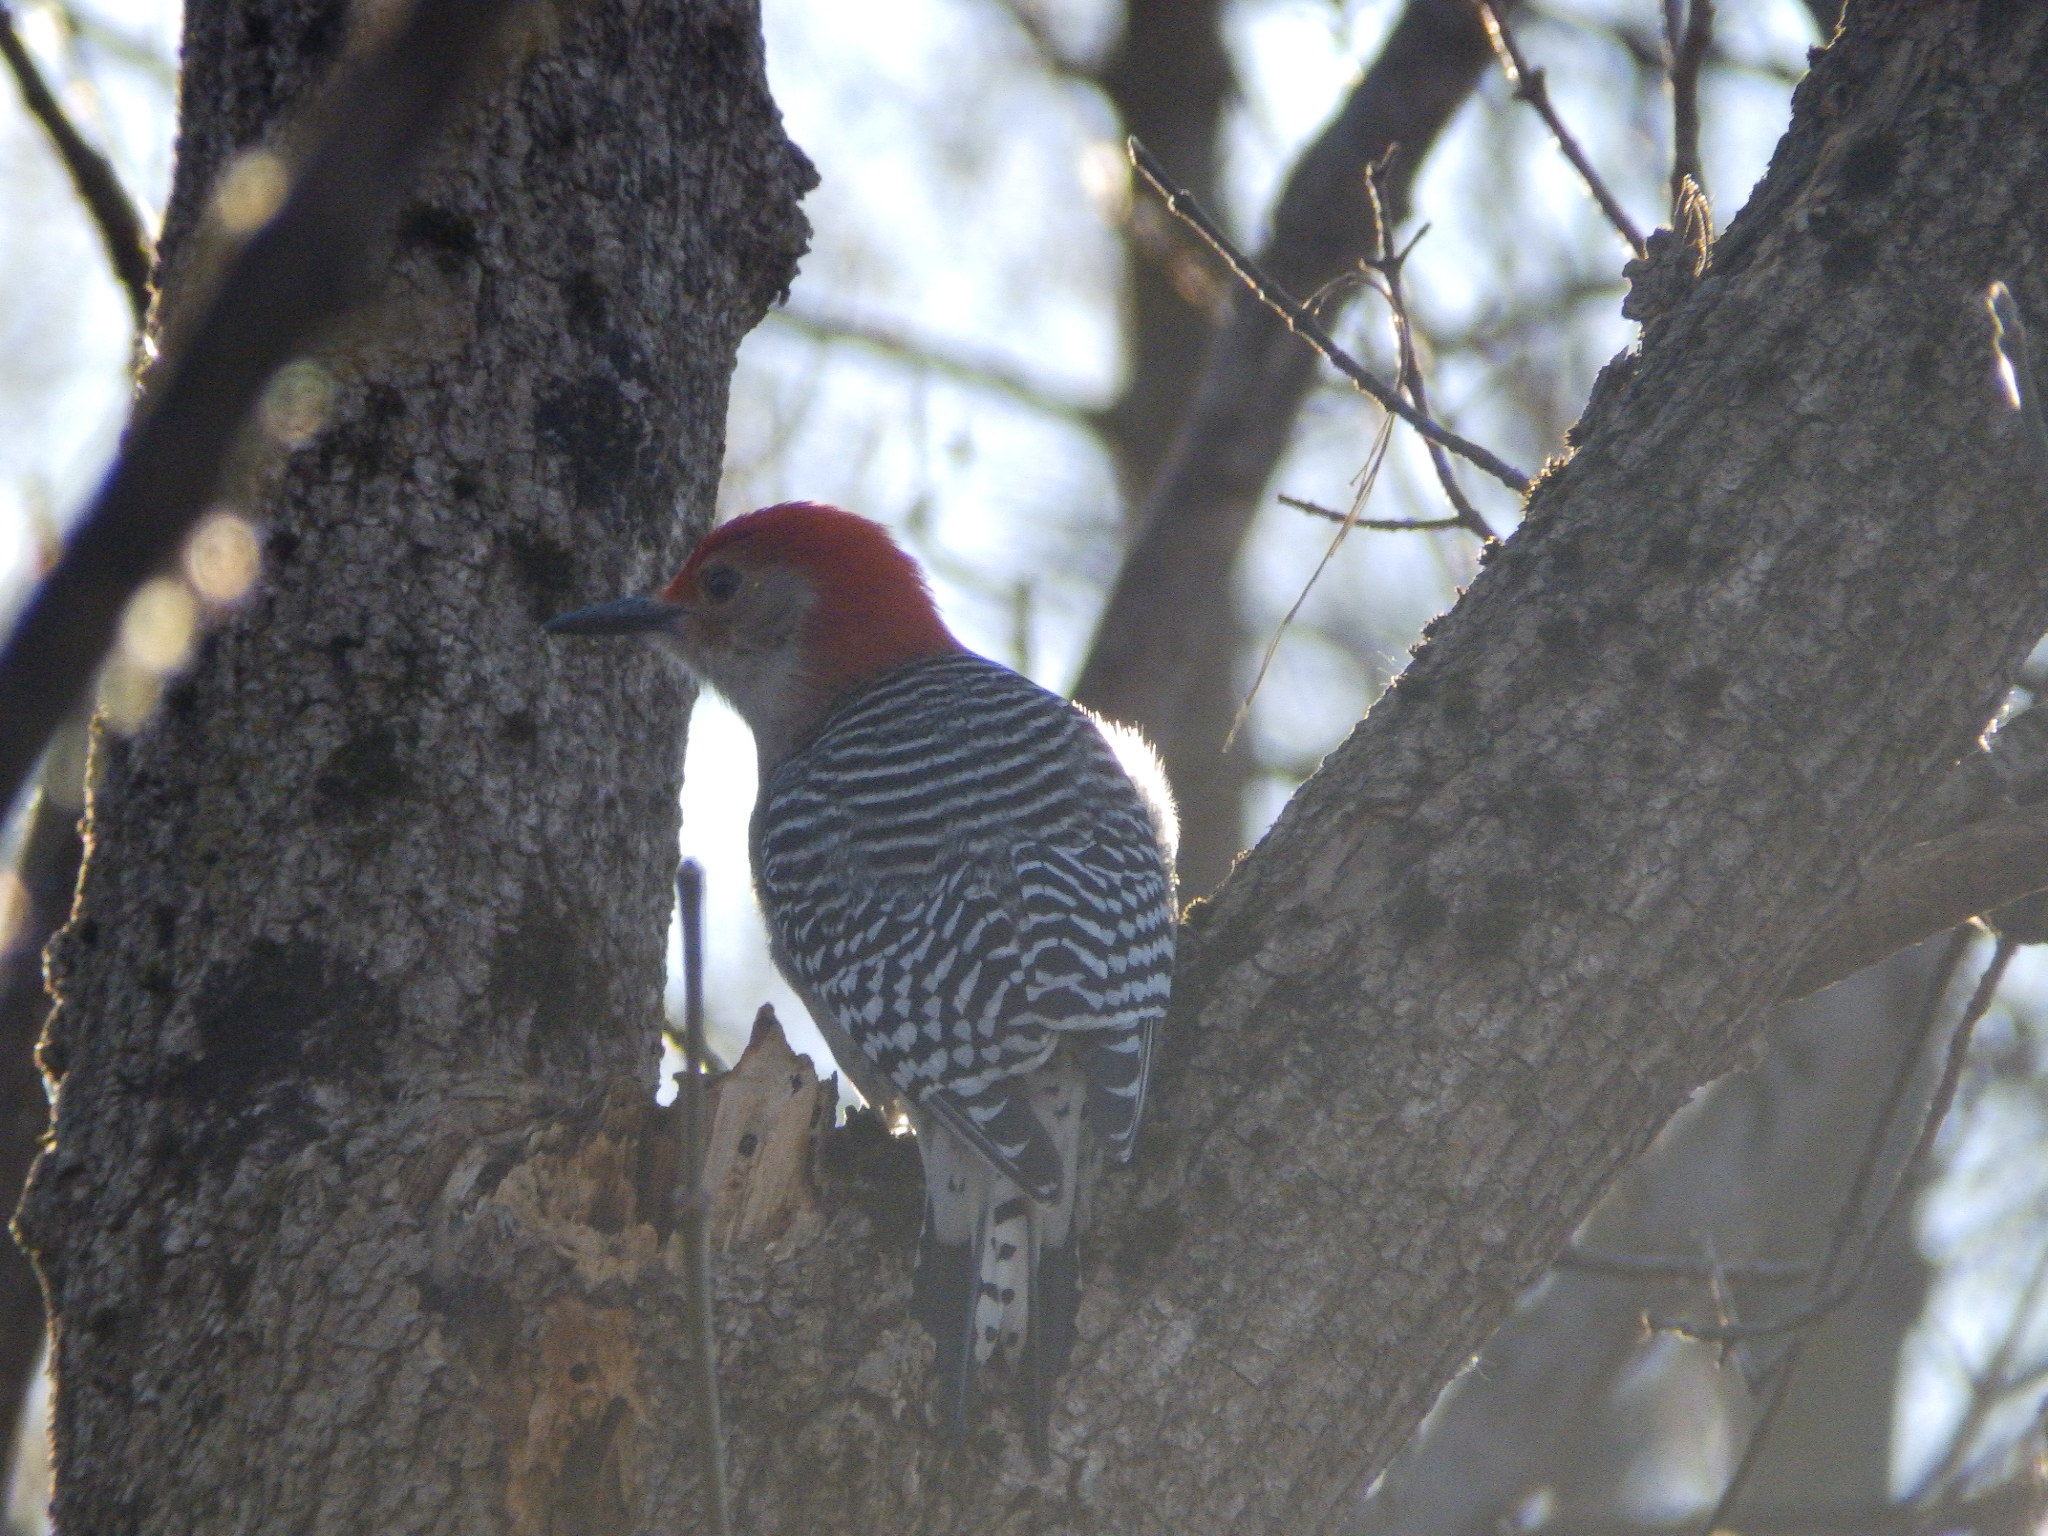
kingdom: Animalia
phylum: Chordata
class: Aves
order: Piciformes
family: Picidae
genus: Melanerpes
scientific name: Melanerpes carolinus
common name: Red-bellied woodpecker
